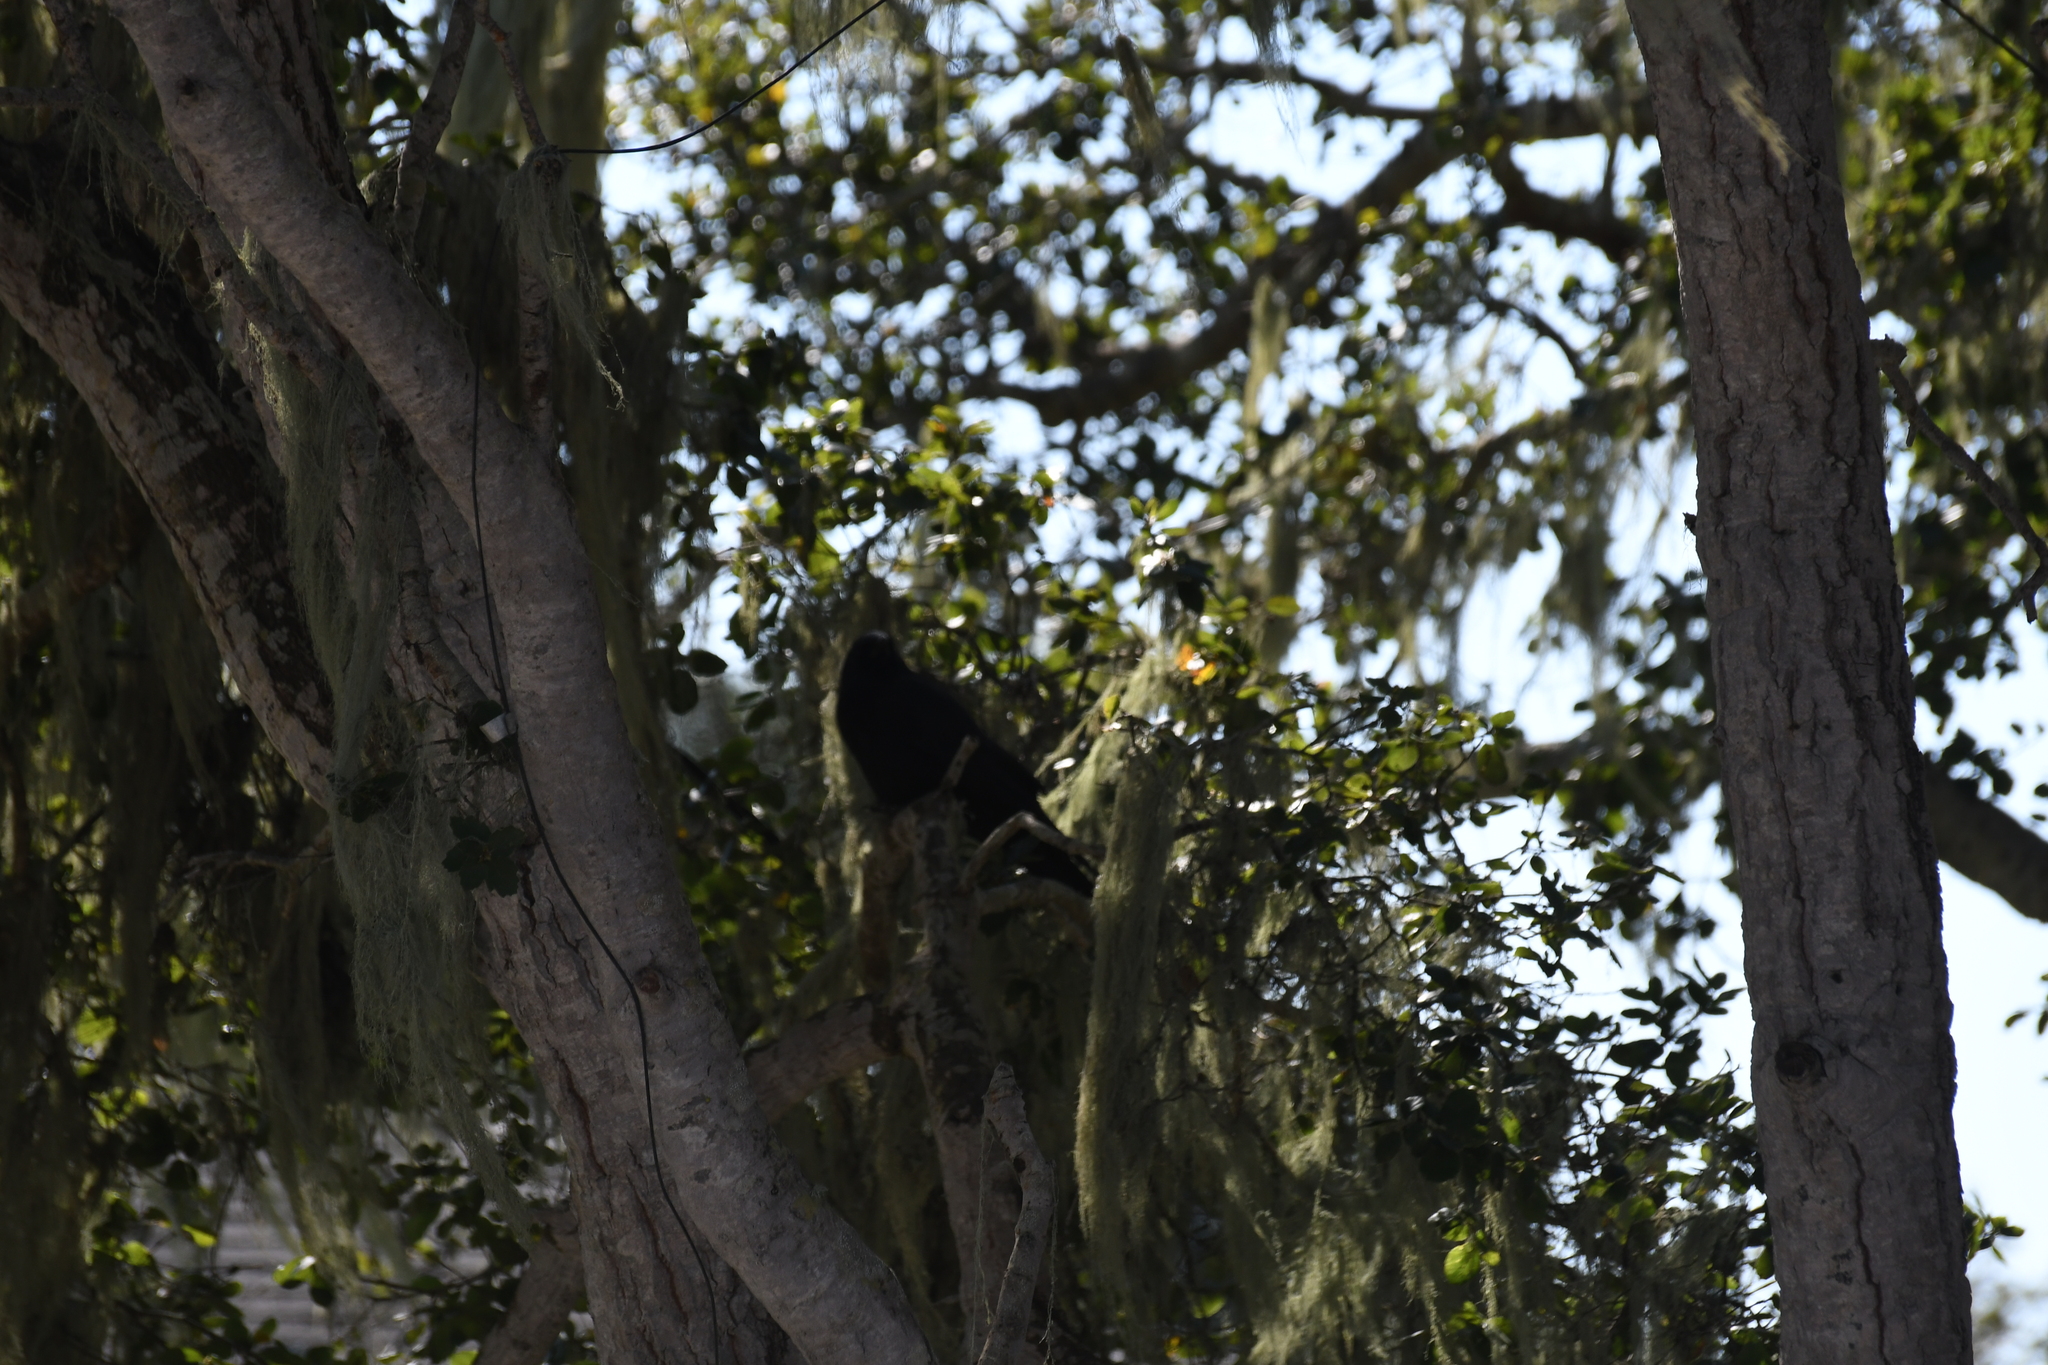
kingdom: Animalia
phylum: Chordata
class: Aves
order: Passeriformes
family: Corvidae
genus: Corvus
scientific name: Corvus brachyrhynchos
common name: American crow
